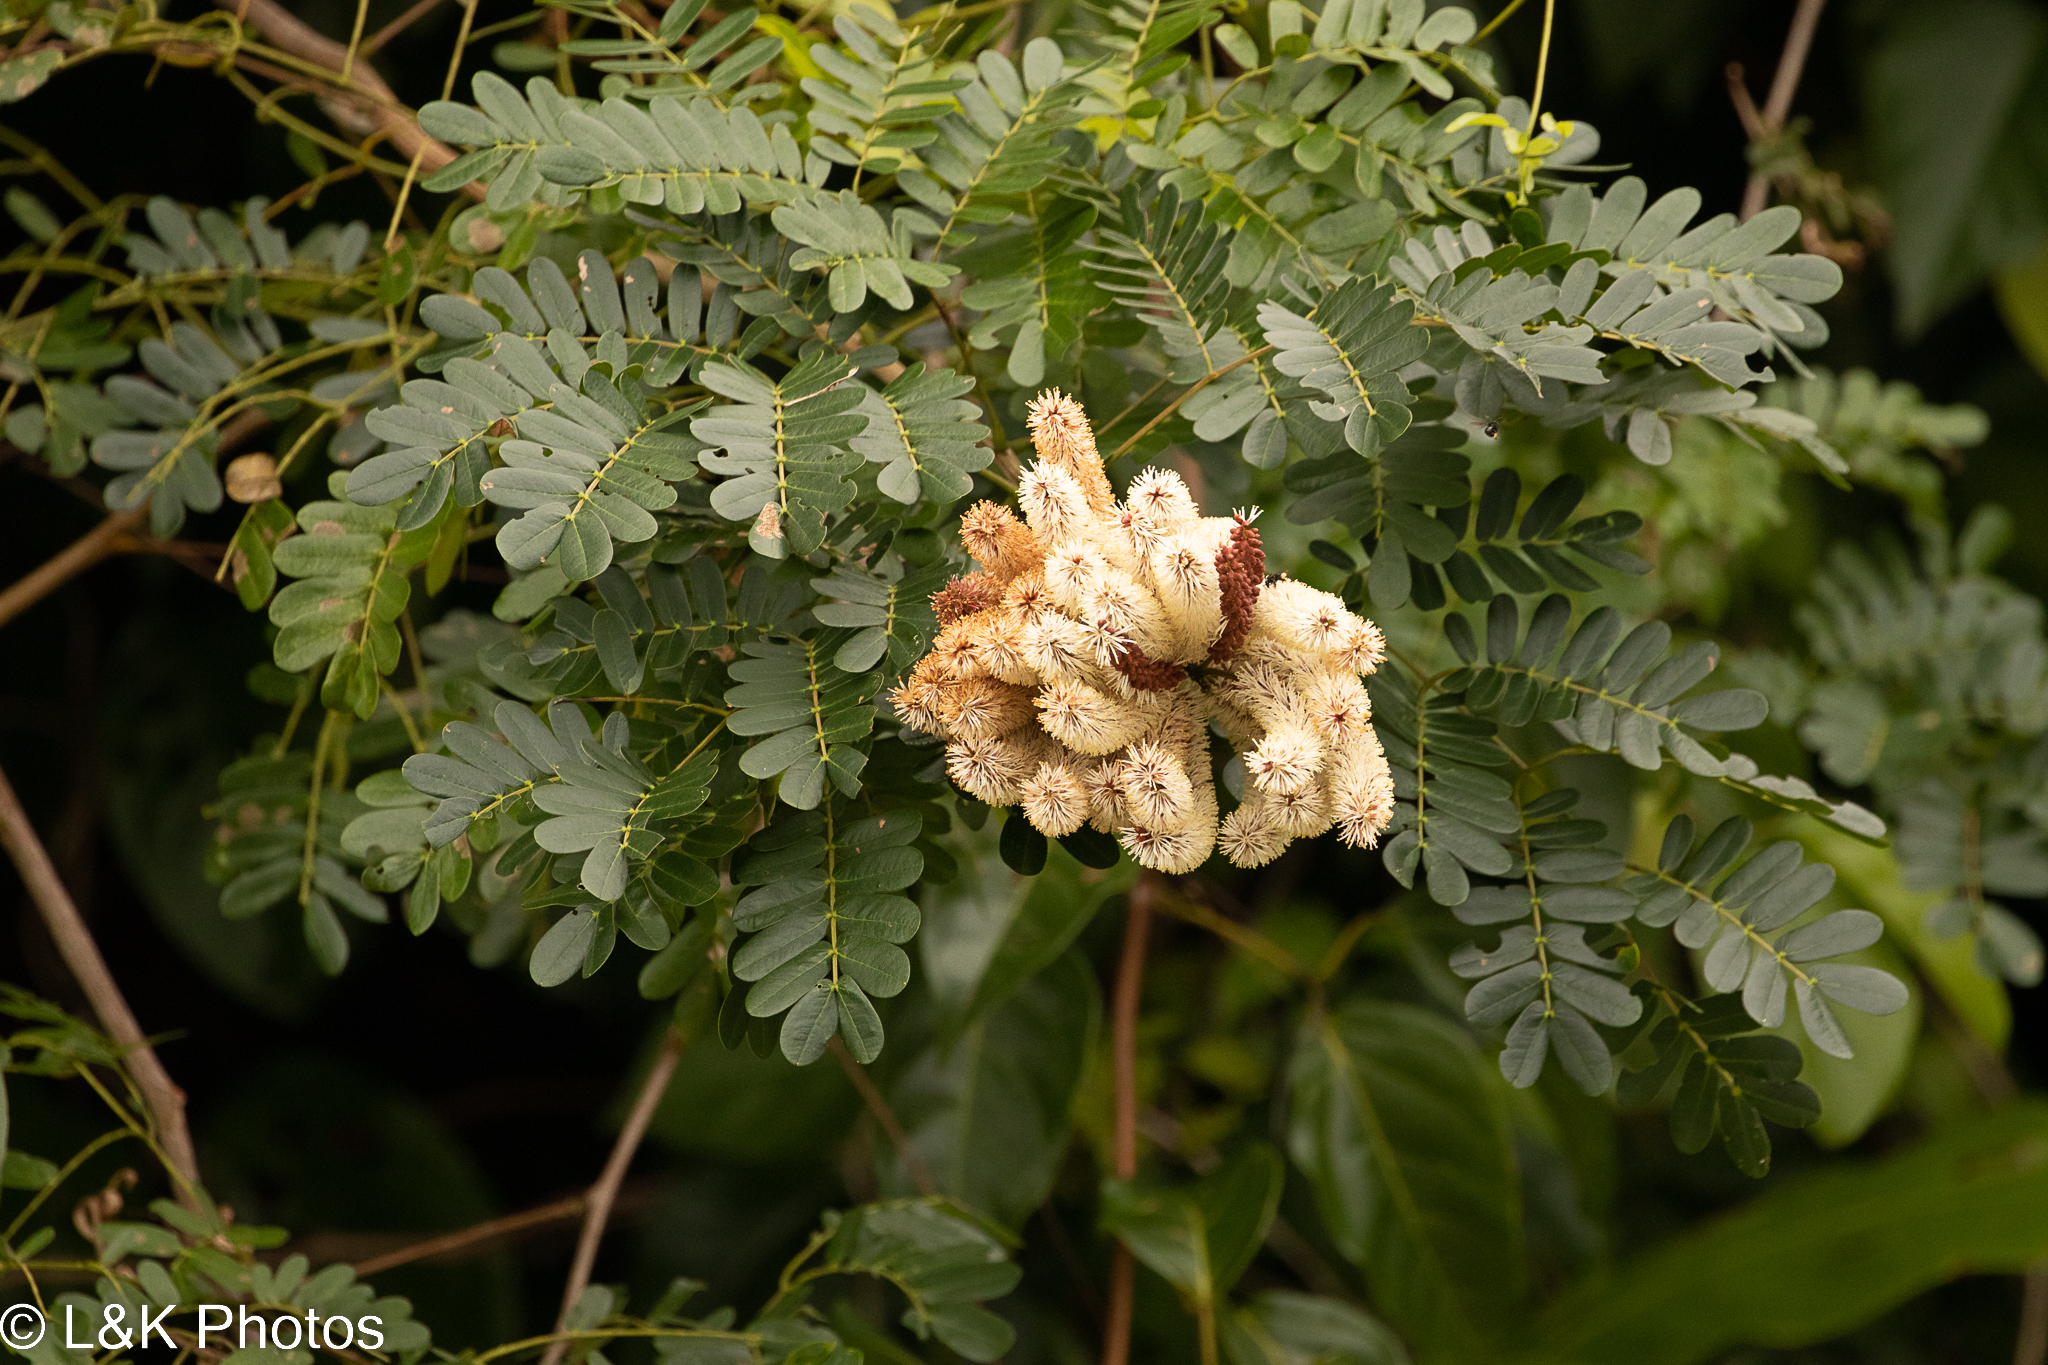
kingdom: Plantae
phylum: Tracheophyta
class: Magnoliopsida
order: Fabales
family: Fabaceae
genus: Entada
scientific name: Entada polystachya
